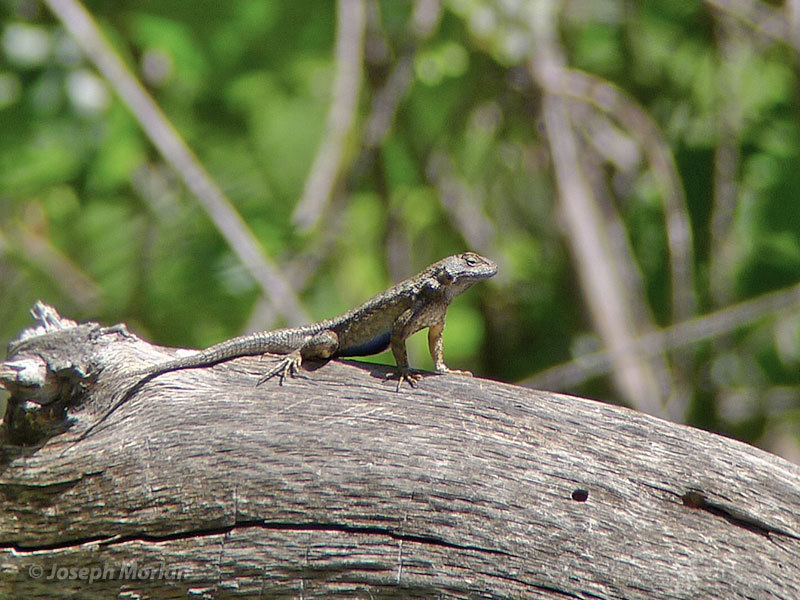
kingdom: Animalia
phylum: Chordata
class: Squamata
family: Phrynosomatidae
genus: Sceloporus
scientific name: Sceloporus occidentalis
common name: Western fence lizard
